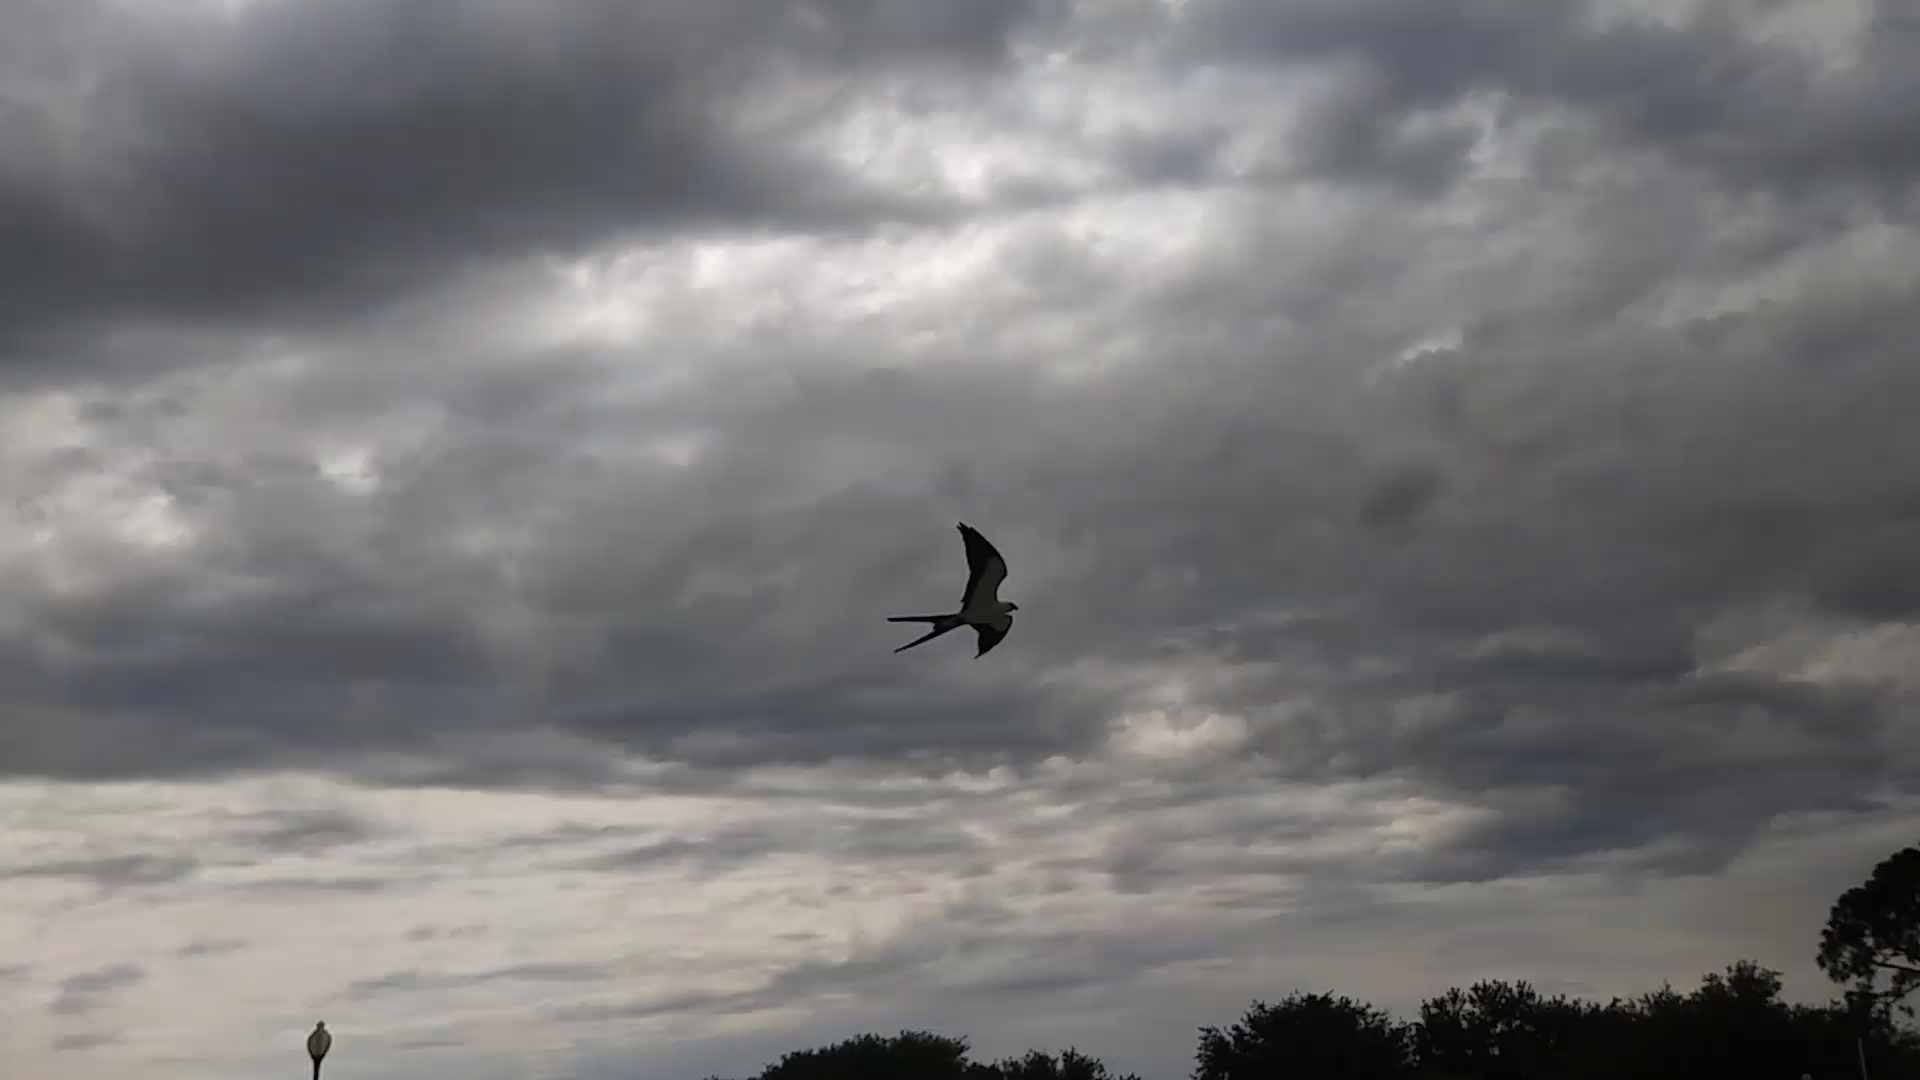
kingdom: Animalia
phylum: Chordata
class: Aves
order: Accipitriformes
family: Accipitridae
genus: Elanoides
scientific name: Elanoides forficatus
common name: Swallow-tailed kite
